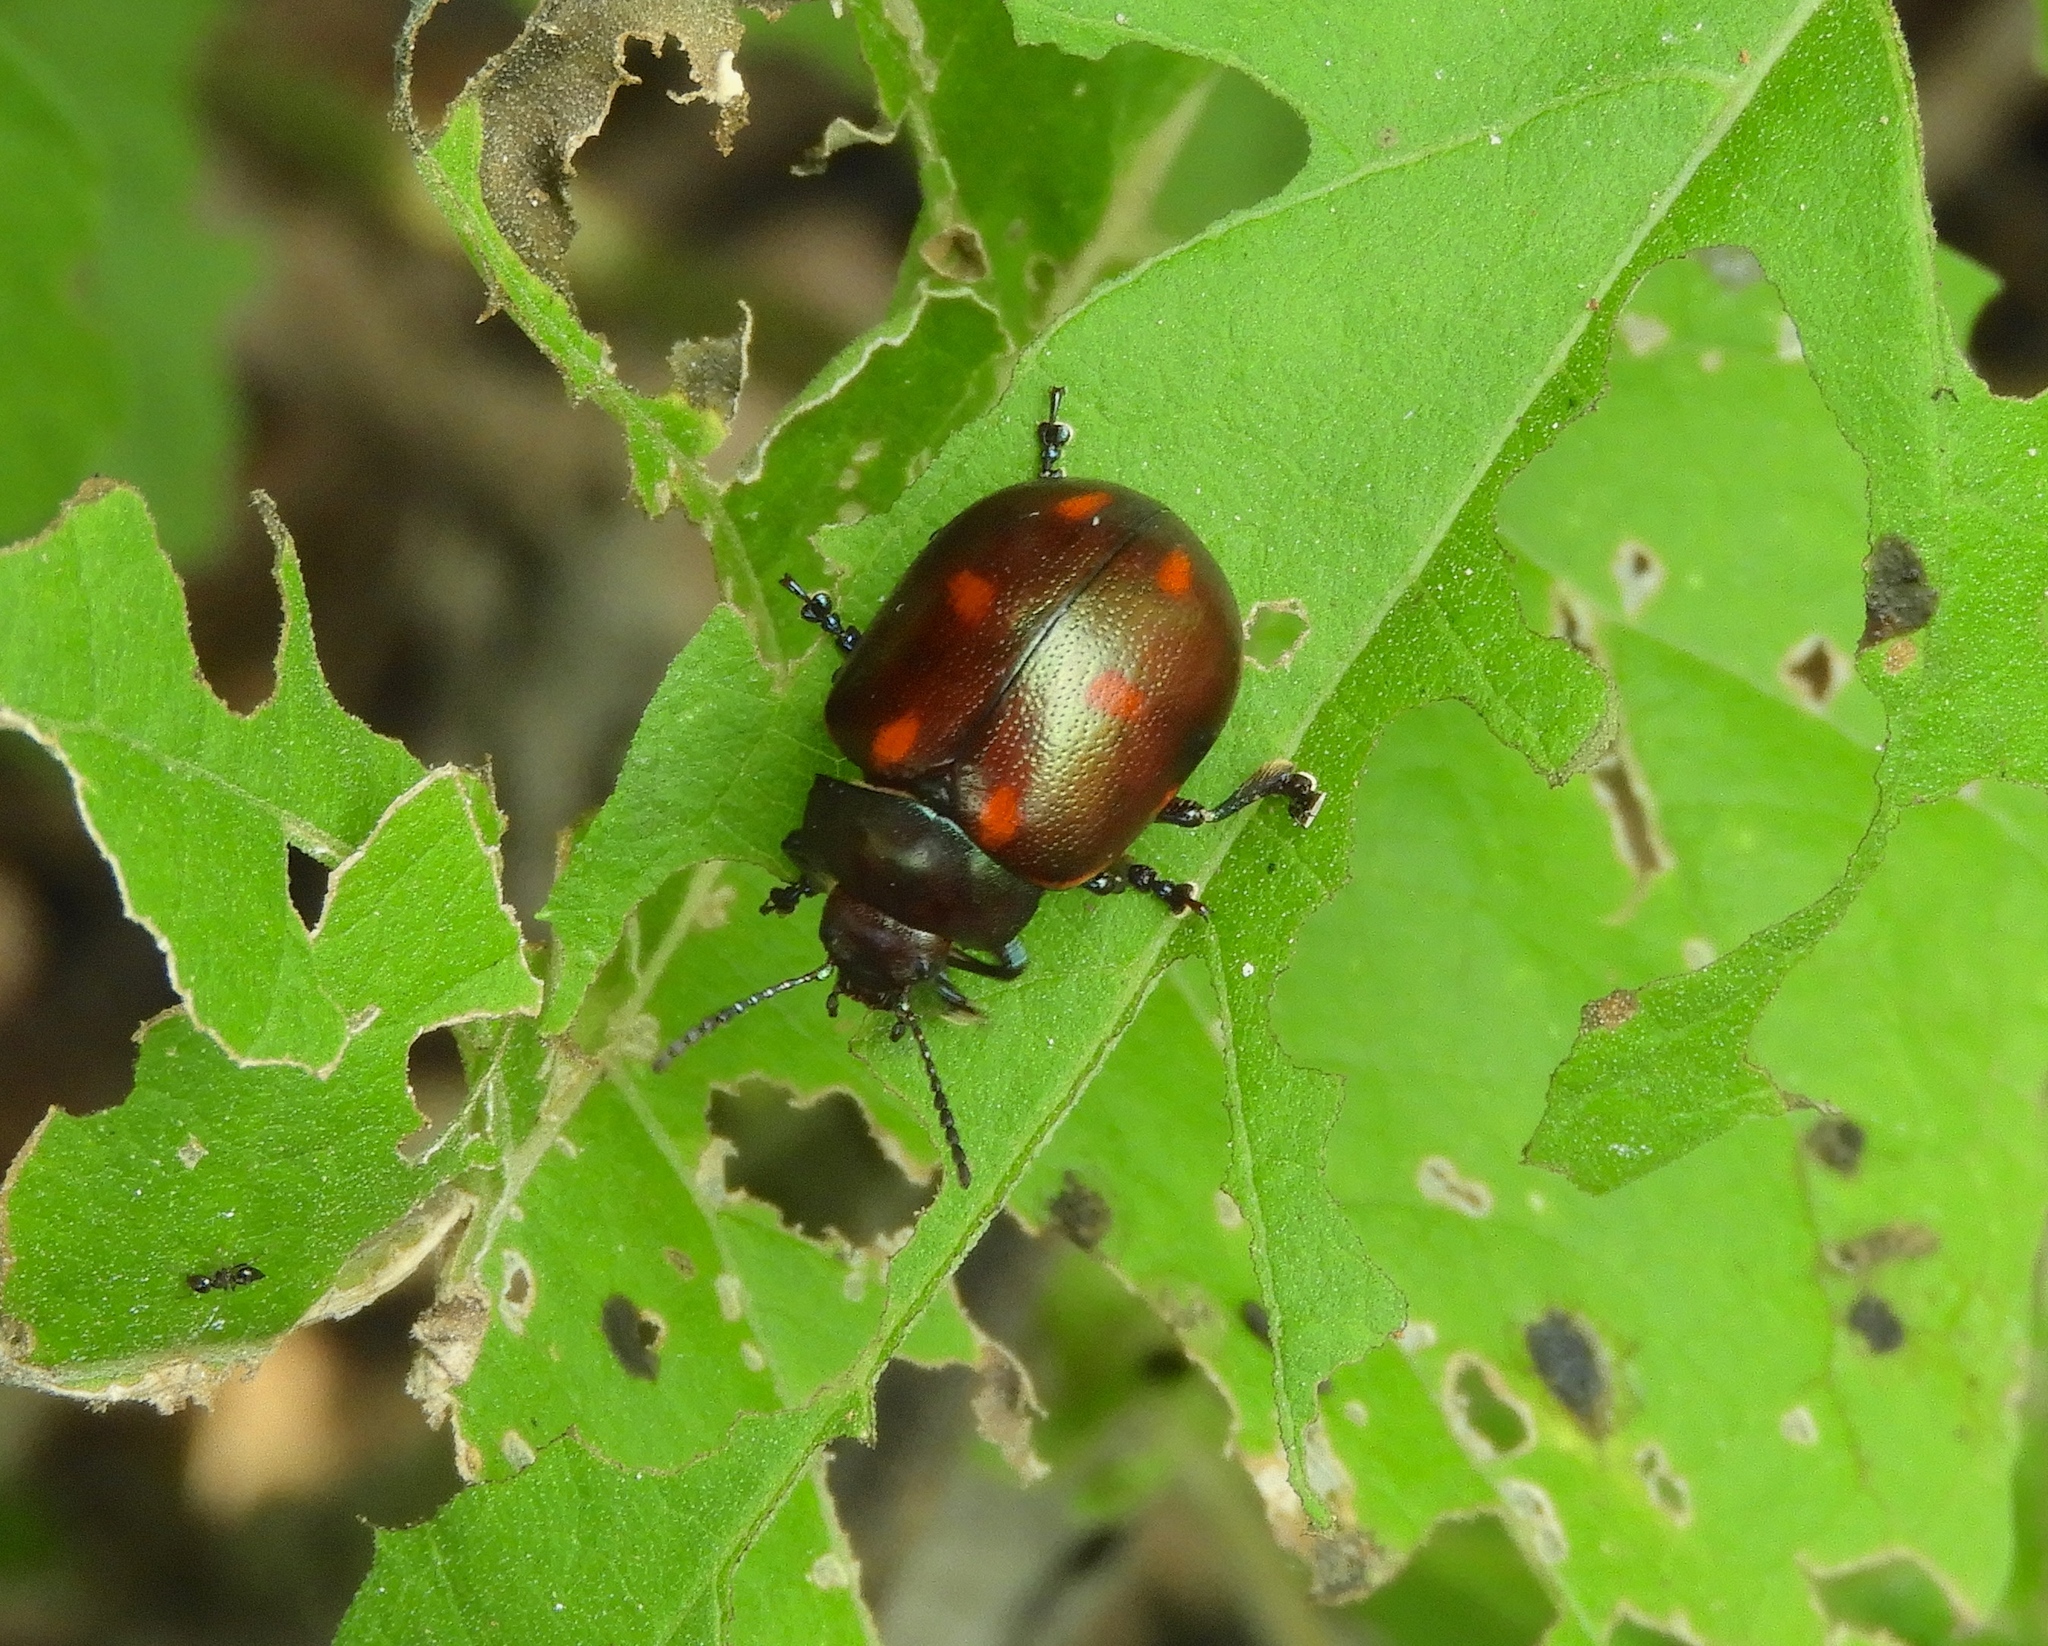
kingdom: Animalia
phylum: Arthropoda
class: Insecta
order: Coleoptera
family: Chrysomelidae
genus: Leptinotarsa
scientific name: Leptinotarsa behrensi
